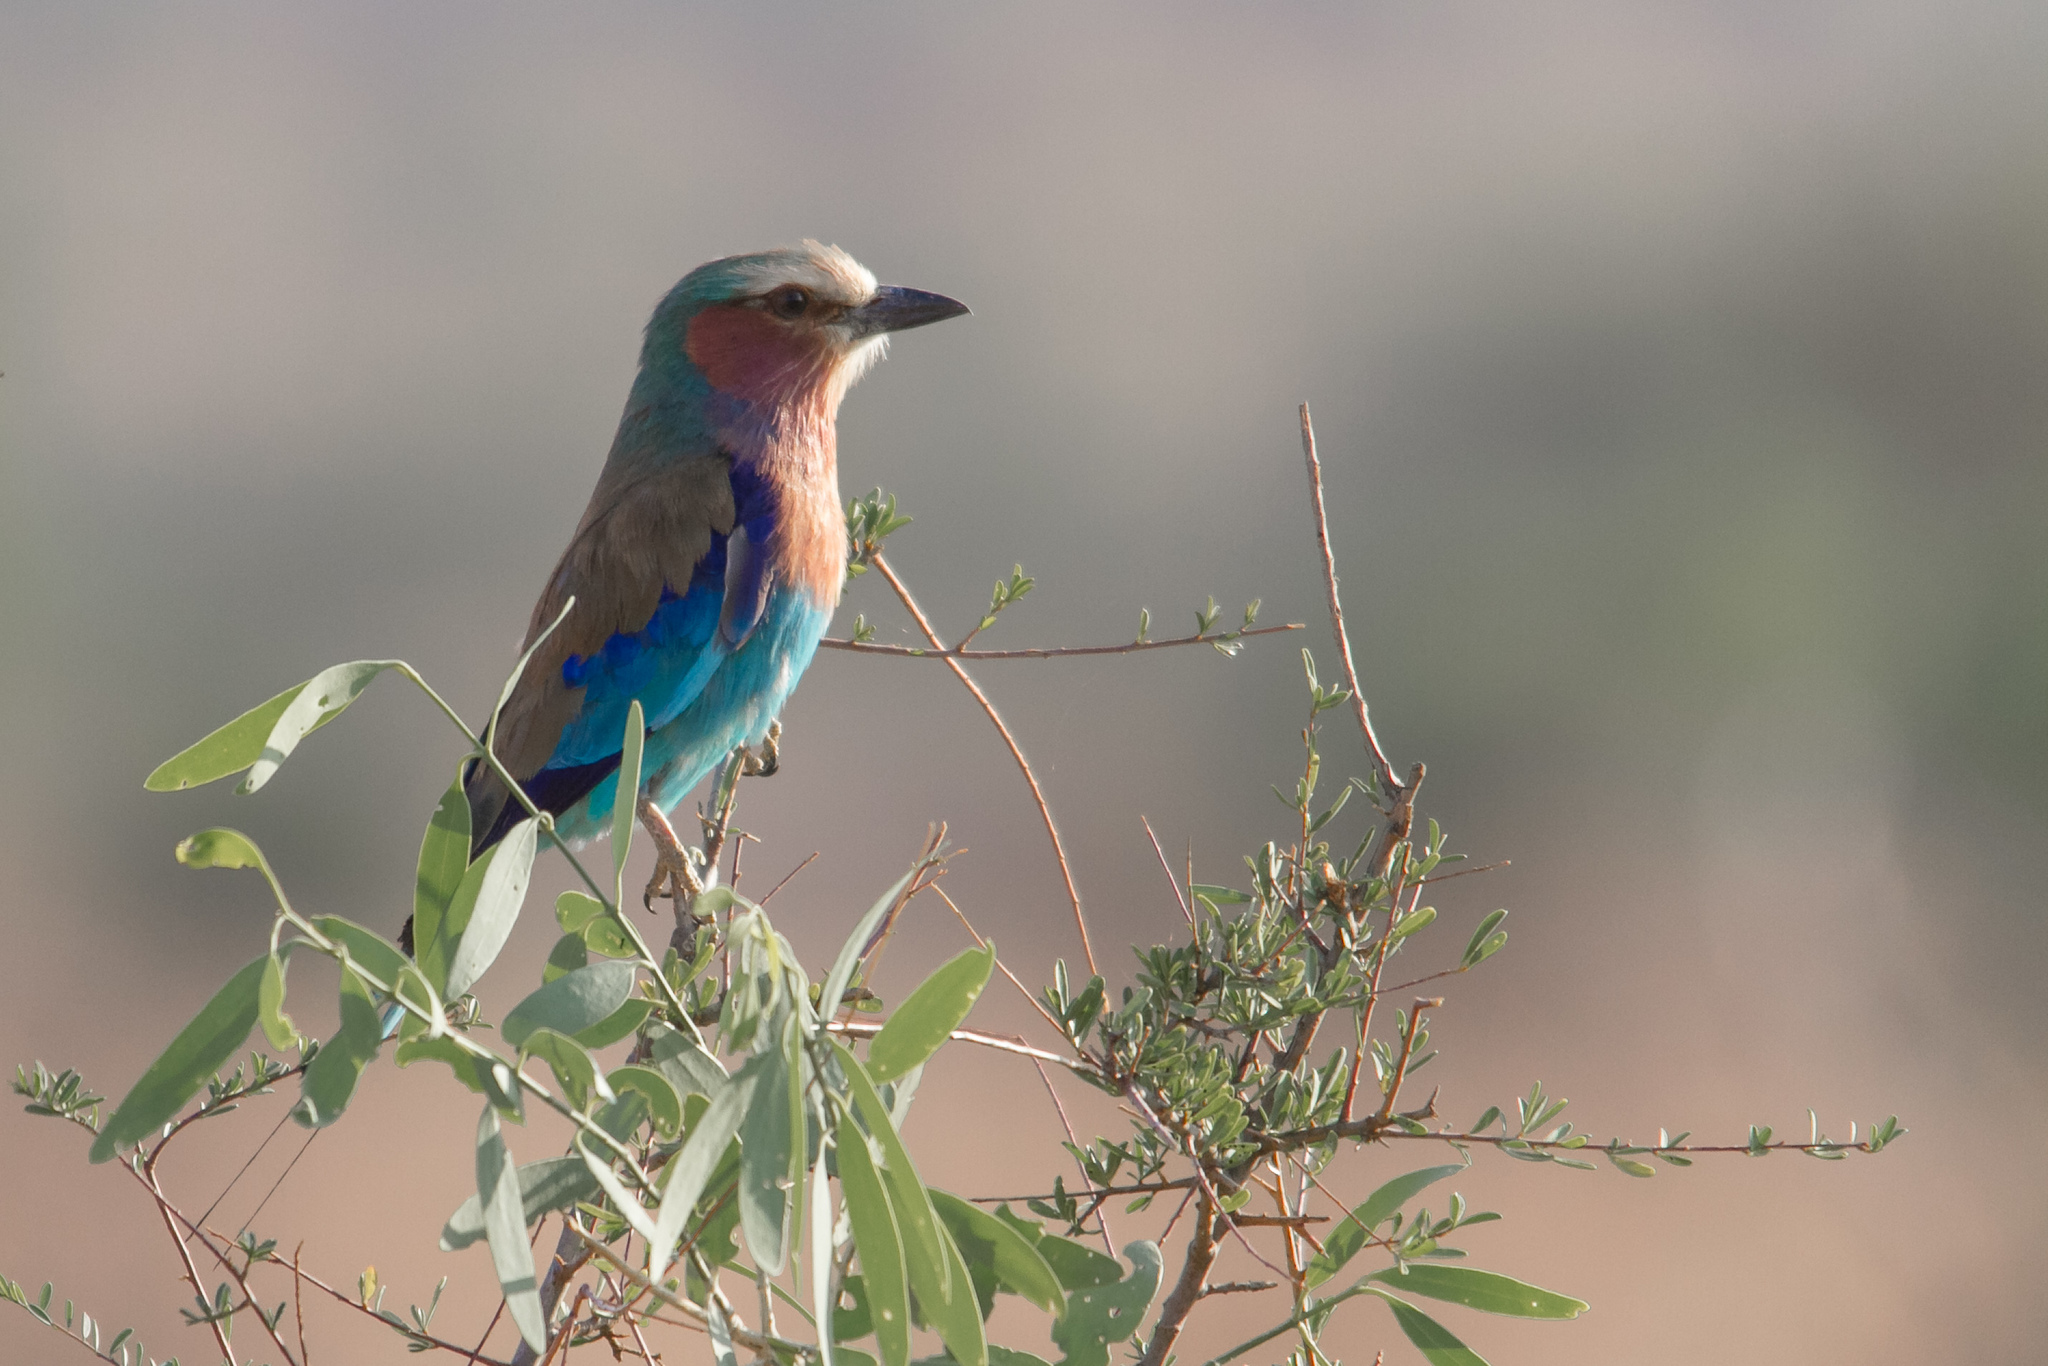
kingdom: Animalia
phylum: Chordata
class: Aves
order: Coraciiformes
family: Coraciidae
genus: Coracias
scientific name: Coracias caudatus
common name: Lilac-breasted roller
